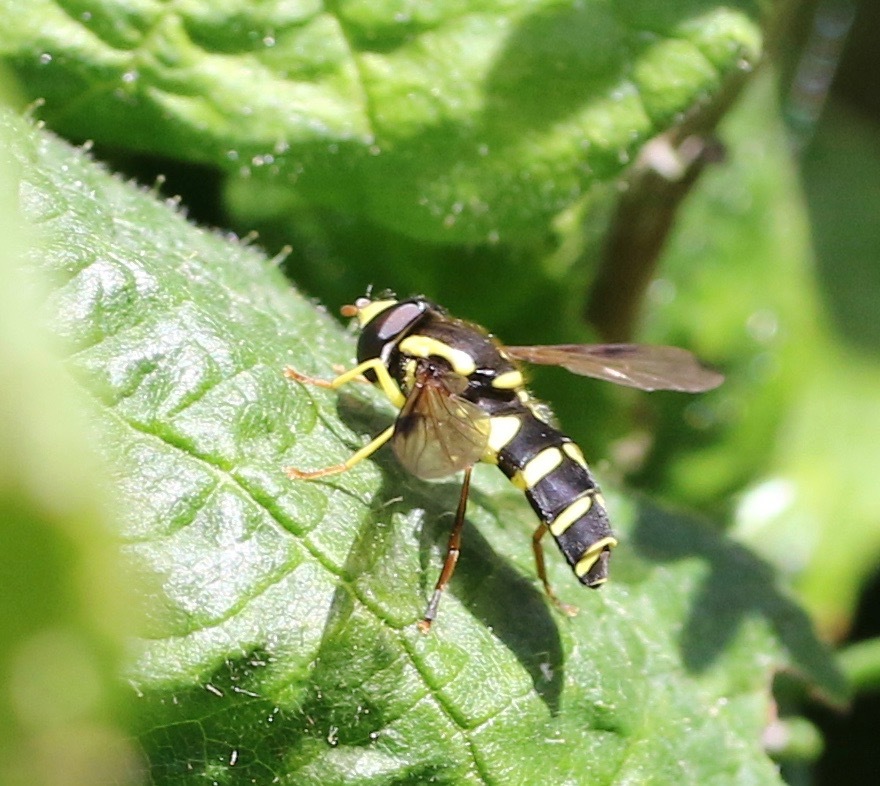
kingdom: Animalia
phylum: Arthropoda
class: Insecta
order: Diptera
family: Syrphidae
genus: Philhelius
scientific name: Philhelius pedissequum
